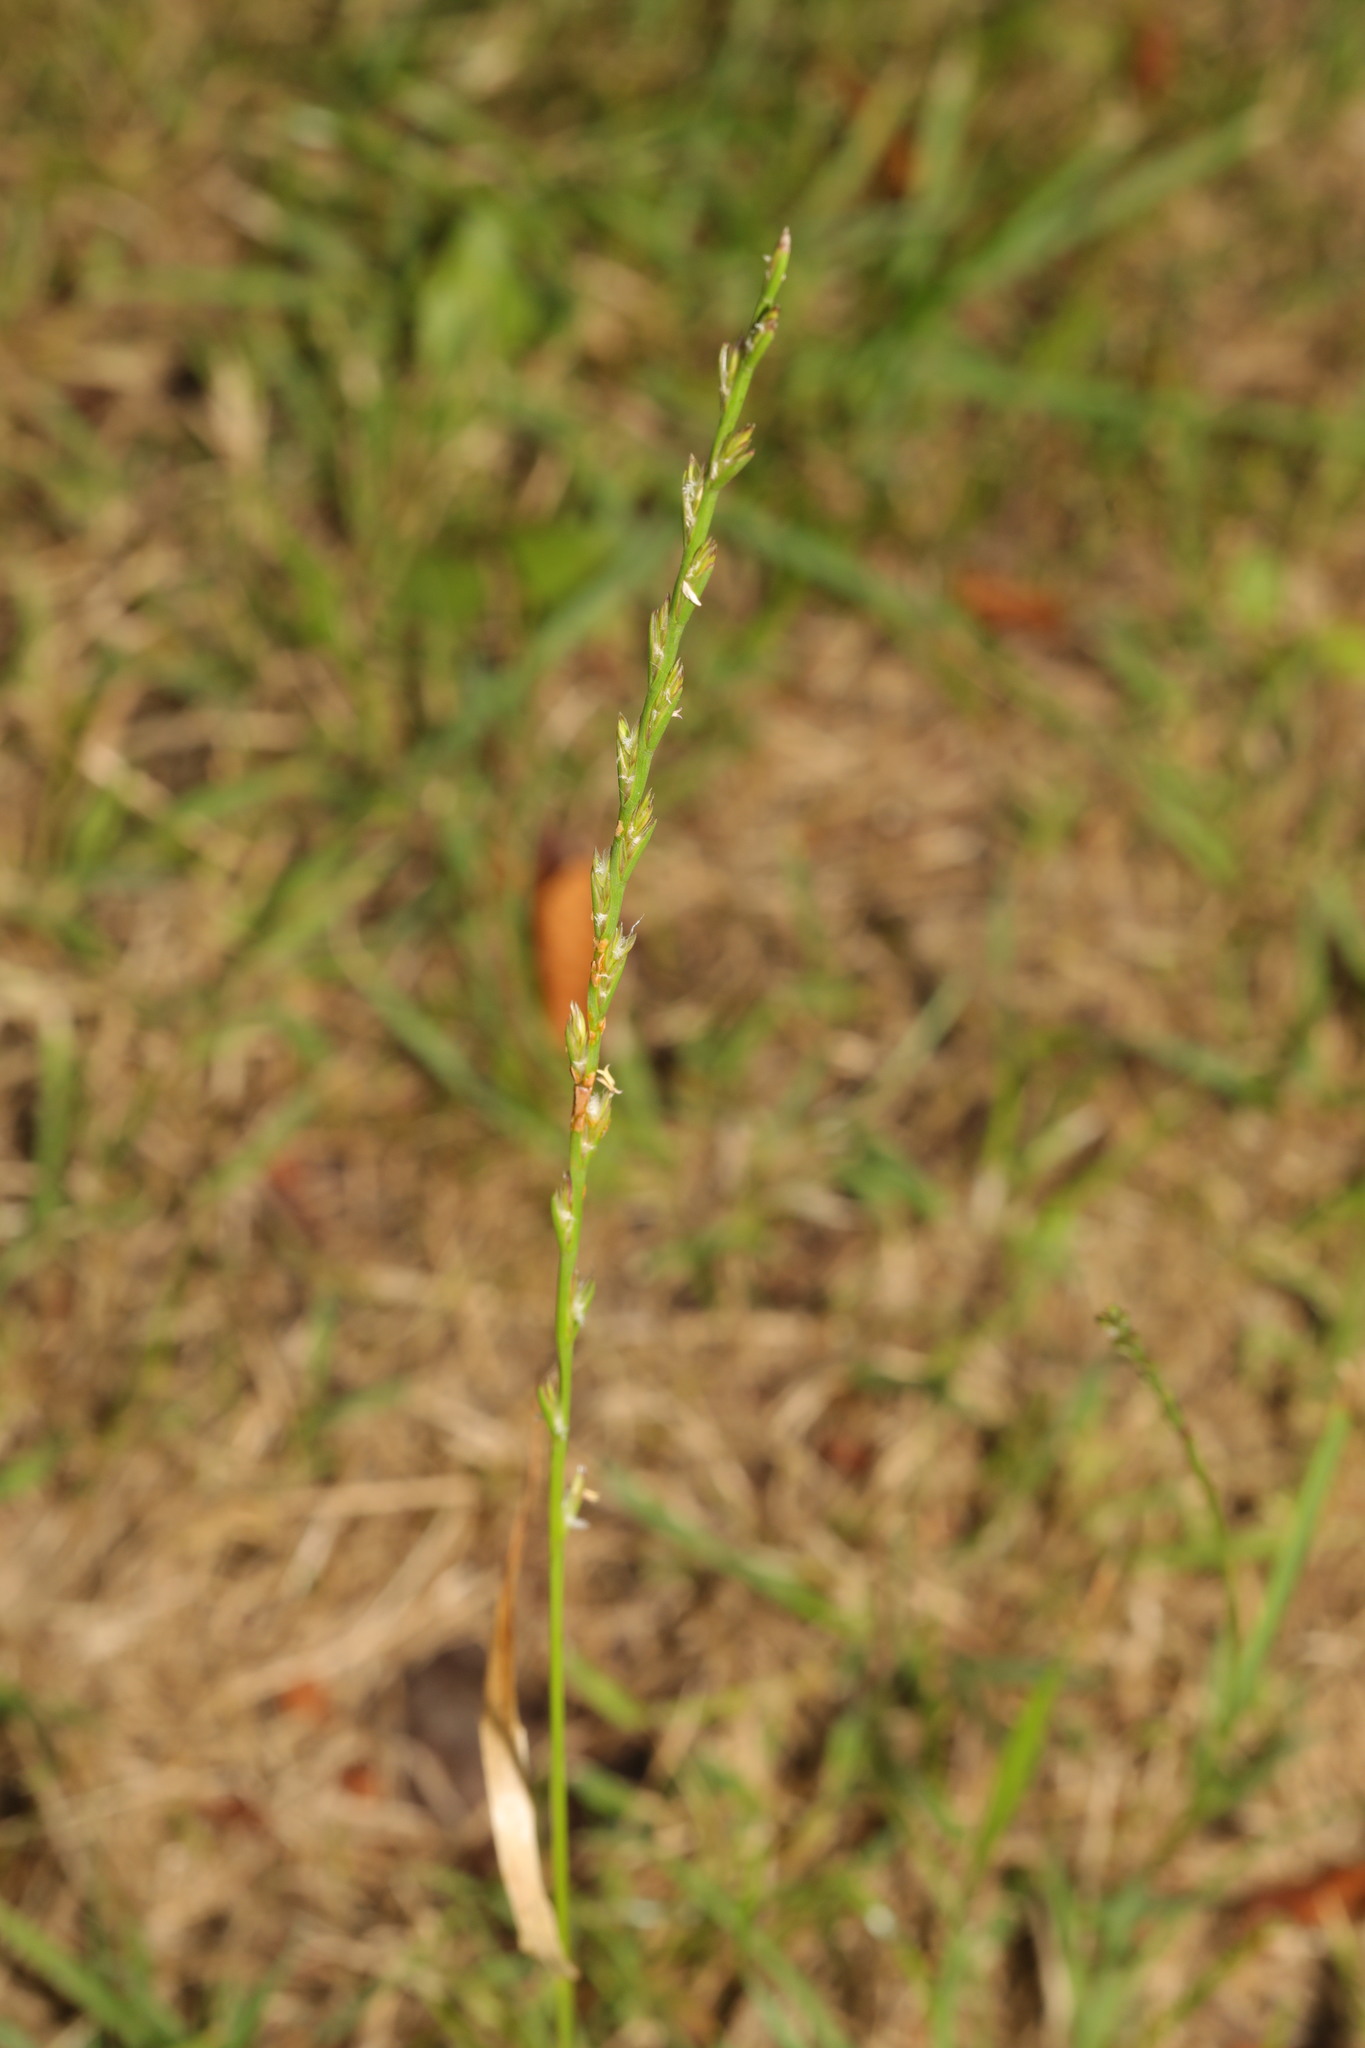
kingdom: Plantae
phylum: Tracheophyta
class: Liliopsida
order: Poales
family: Poaceae
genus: Lolium
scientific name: Lolium perenne
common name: Perennial ryegrass
